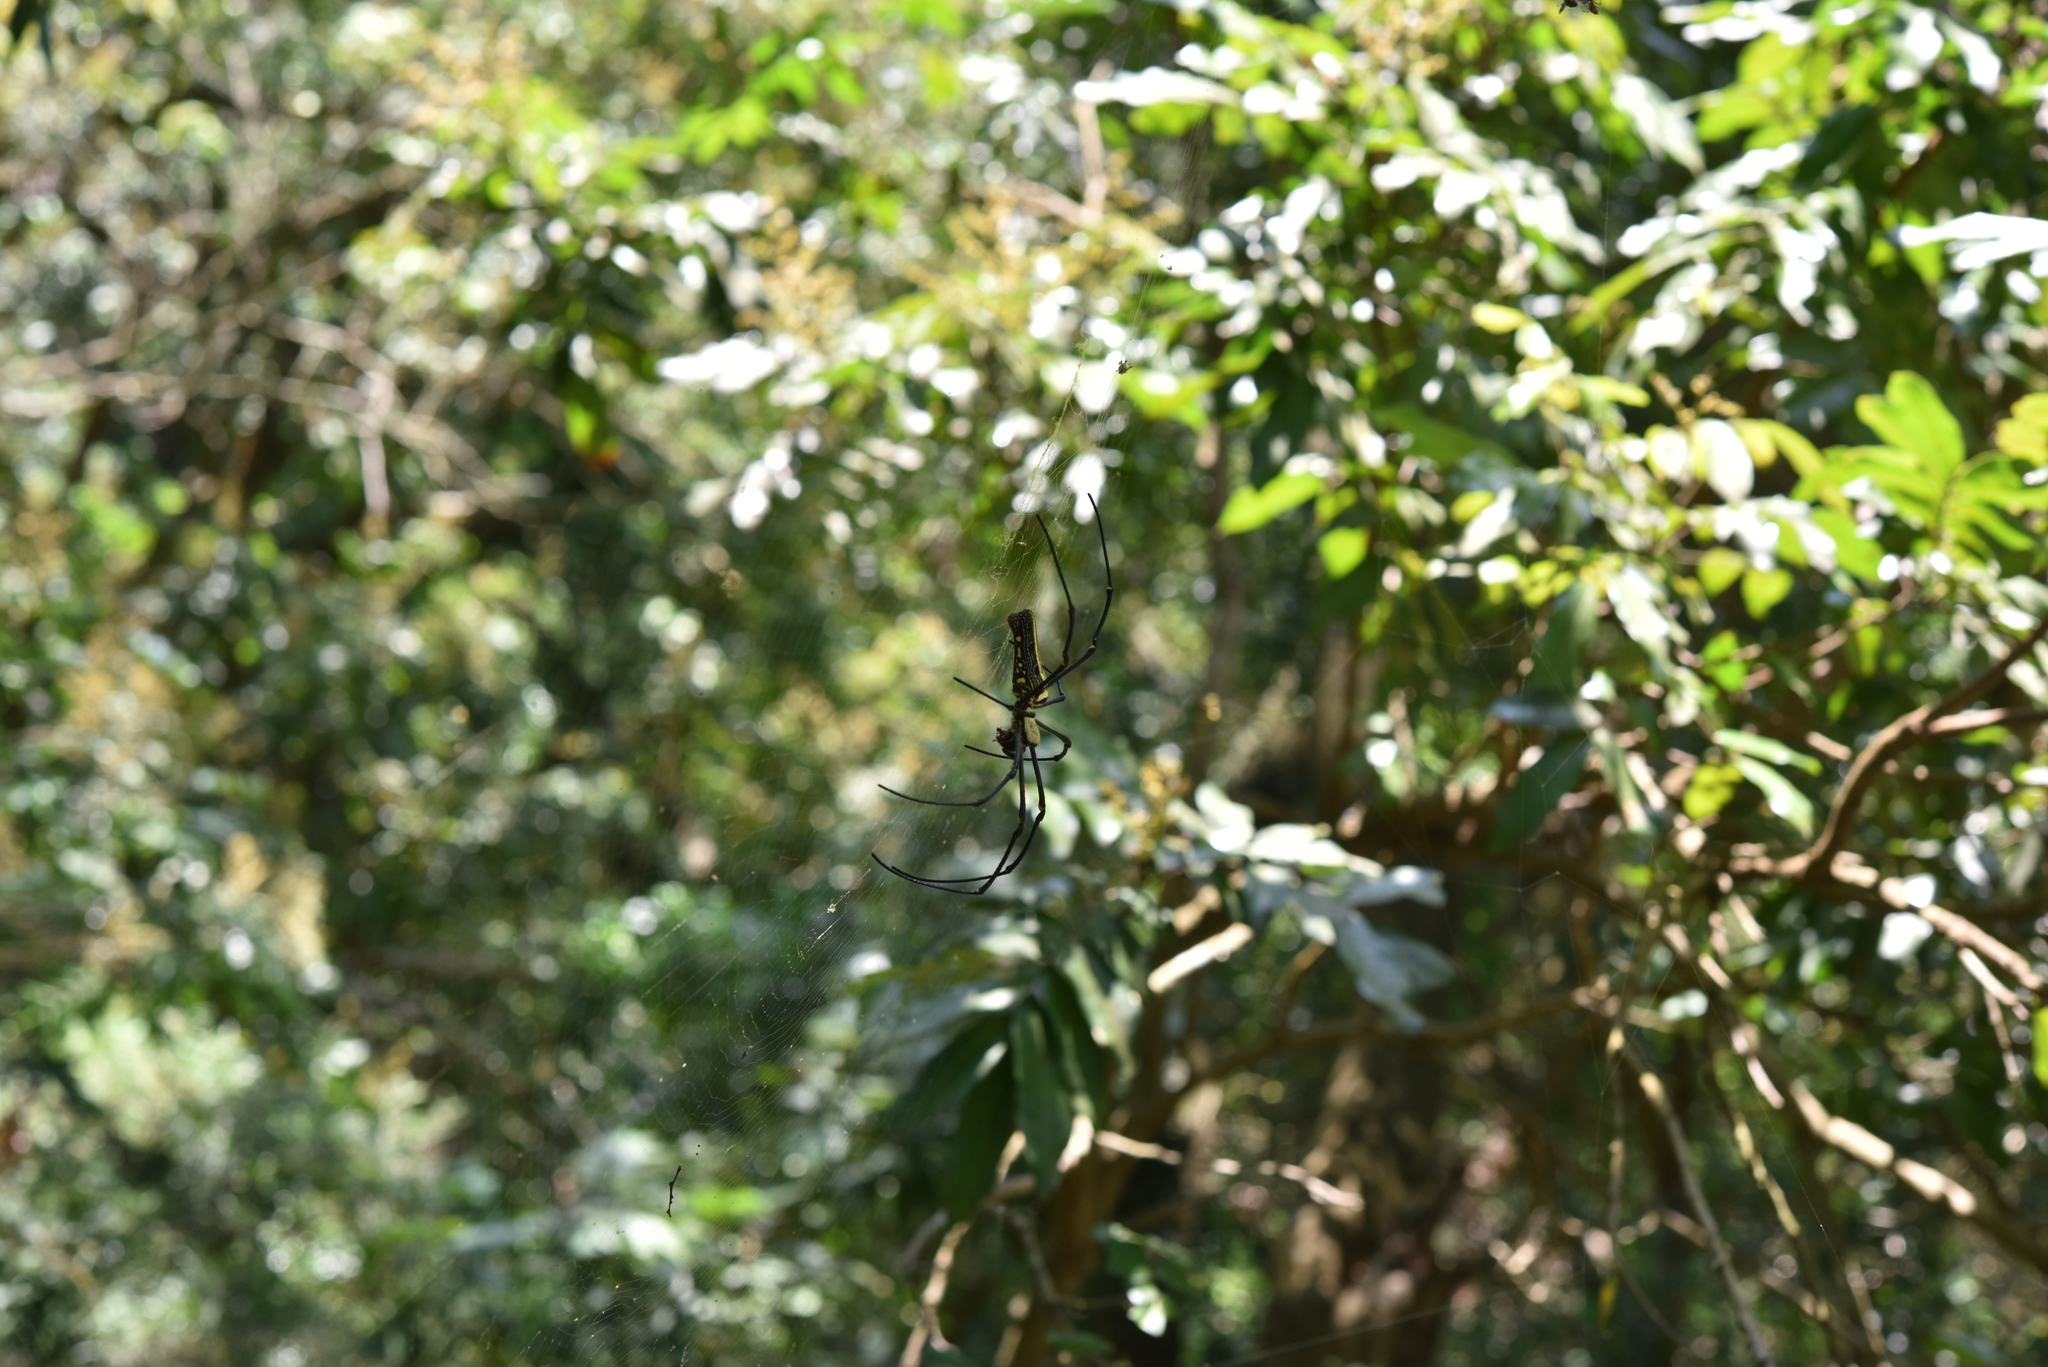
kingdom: Animalia
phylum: Arthropoda
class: Arachnida
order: Araneae
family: Araneidae
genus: Nephila
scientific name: Nephila pilipes
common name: Giant golden orb weaver
